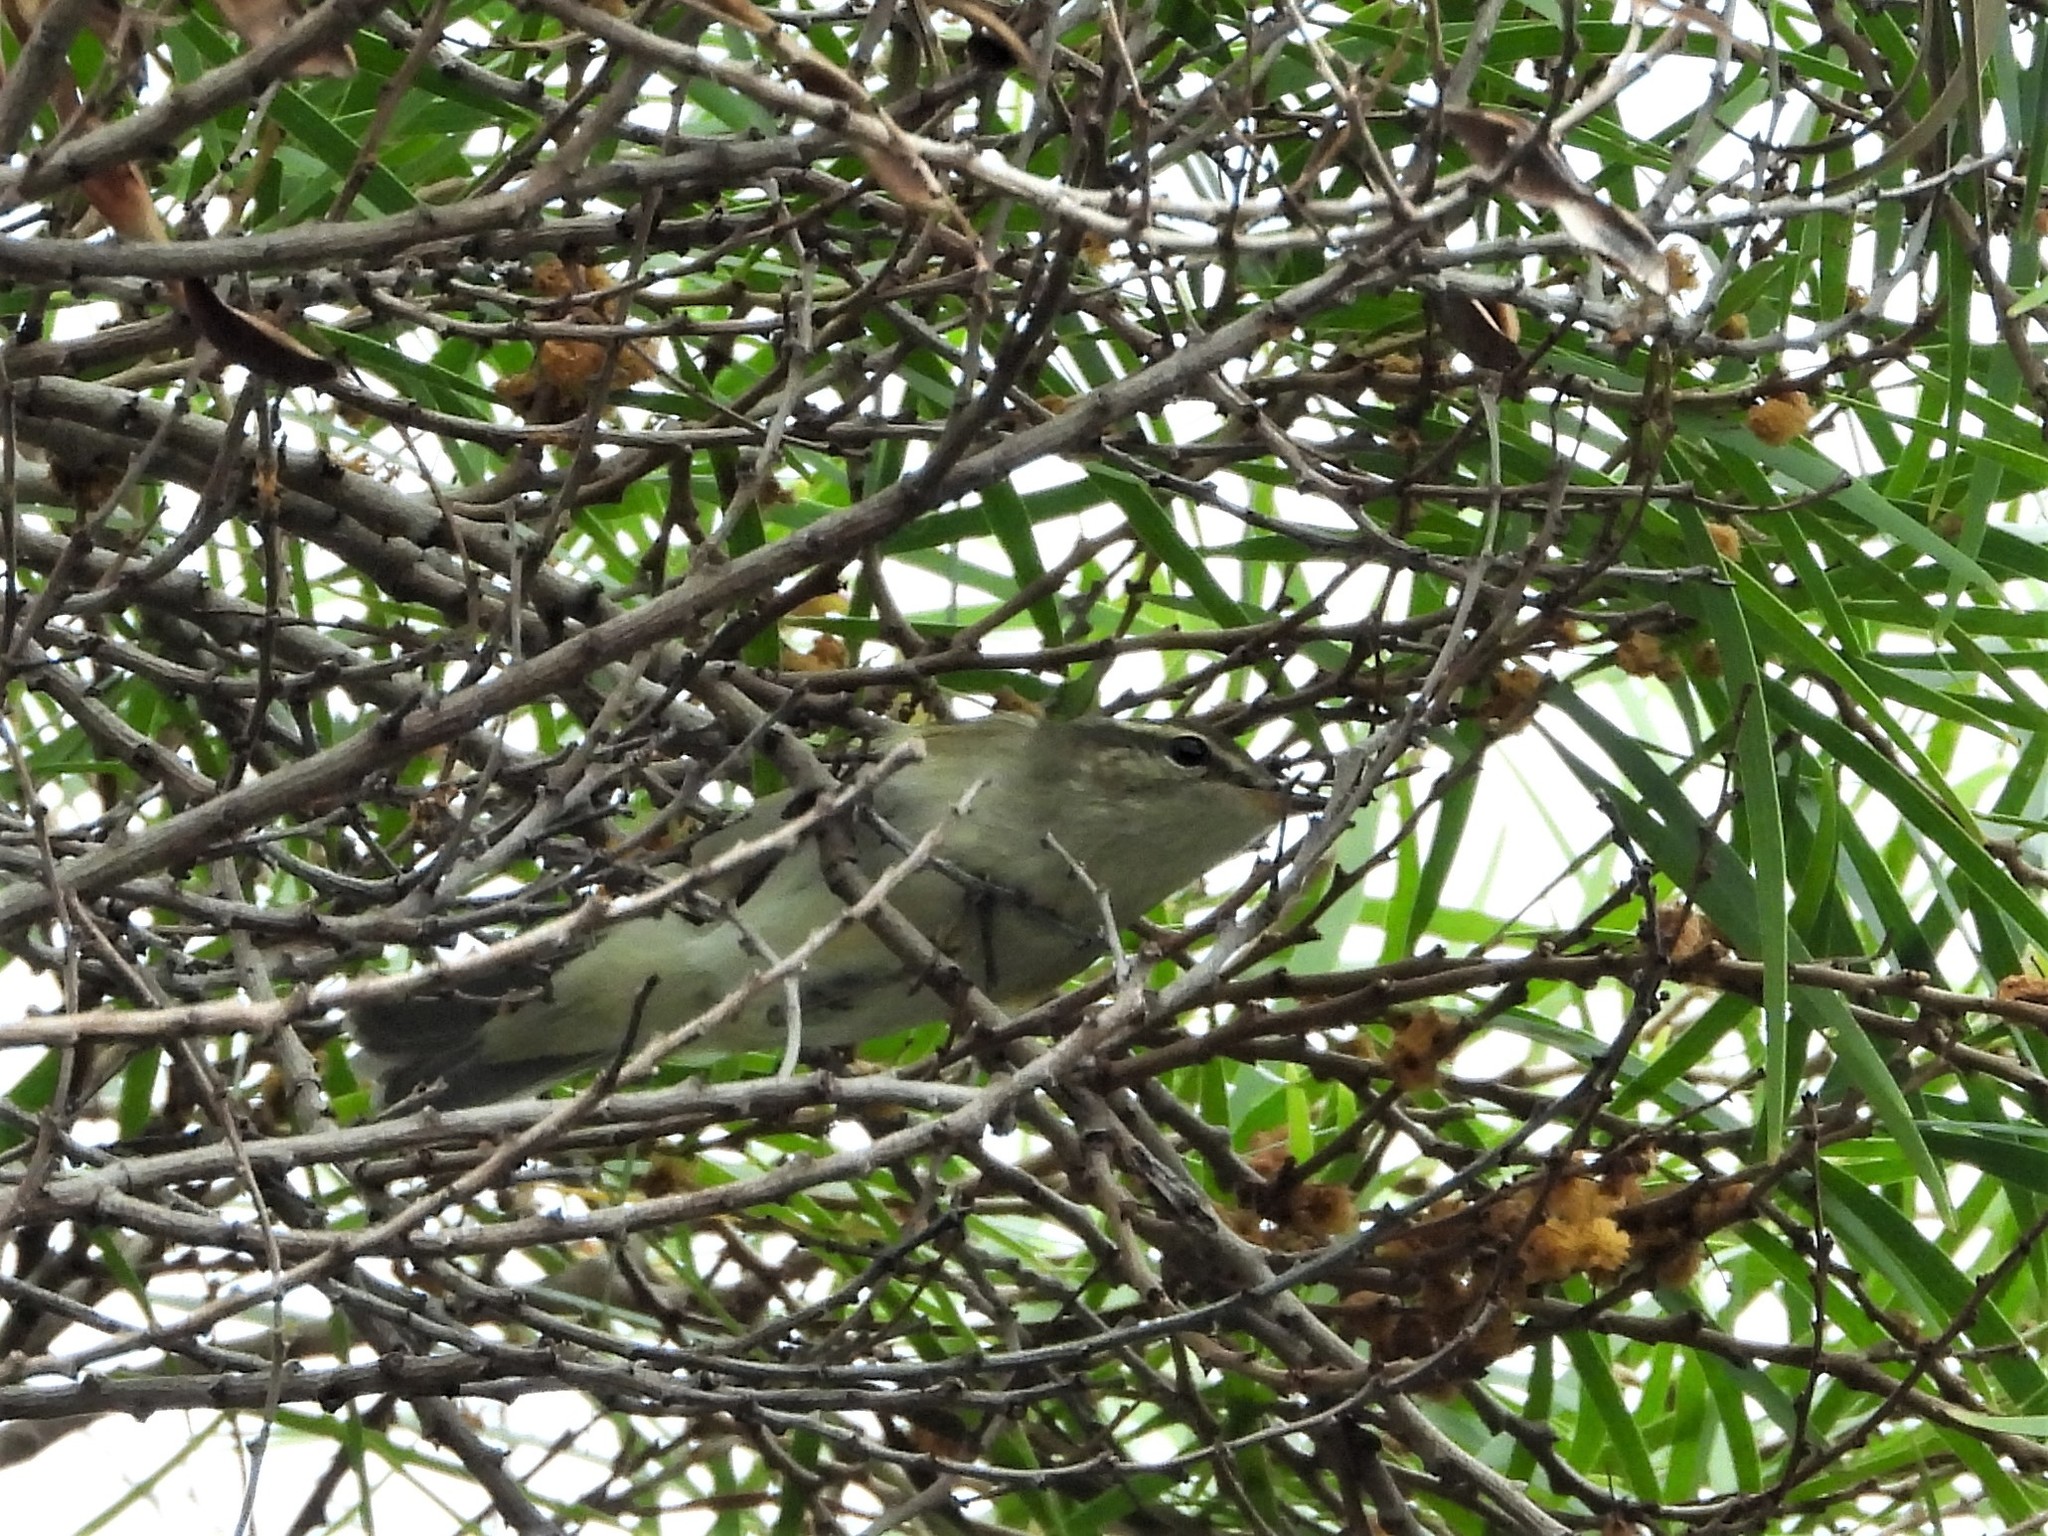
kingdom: Animalia
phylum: Chordata
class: Aves
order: Passeriformes
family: Phylloscopidae
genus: Phylloscopus
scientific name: Phylloscopus borealis
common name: Arctic warbler
